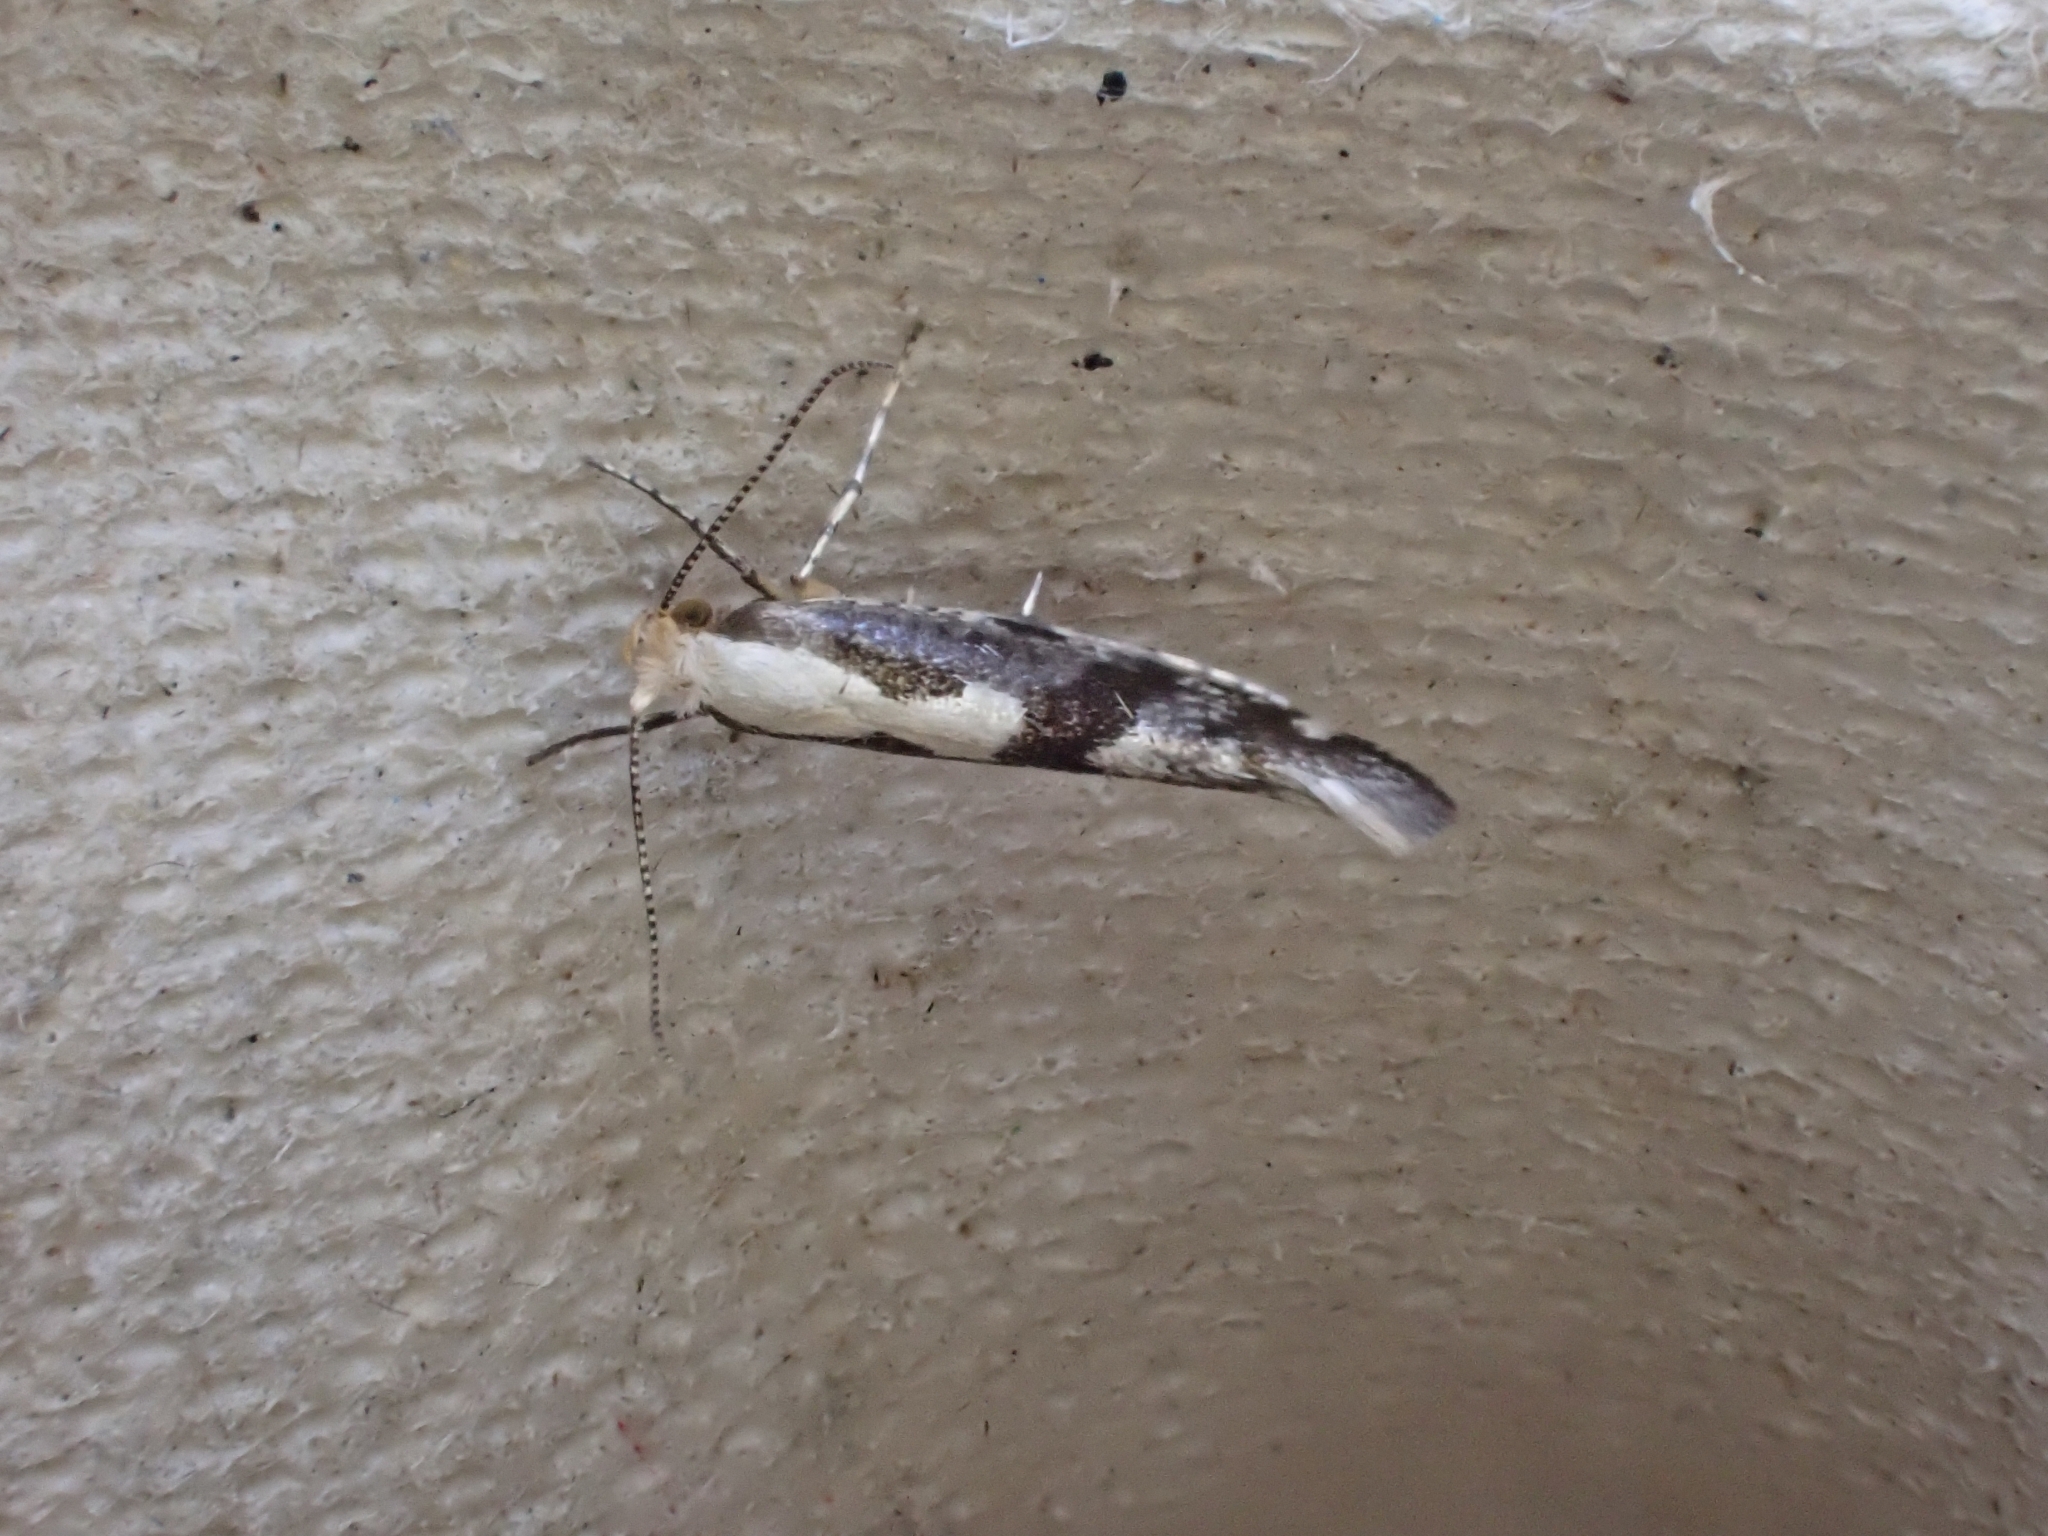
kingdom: Animalia
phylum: Arthropoda
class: Insecta
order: Lepidoptera
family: Argyresthiidae
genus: Argyresthia
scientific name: Argyresthia conjugella
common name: Apple fruit moth
